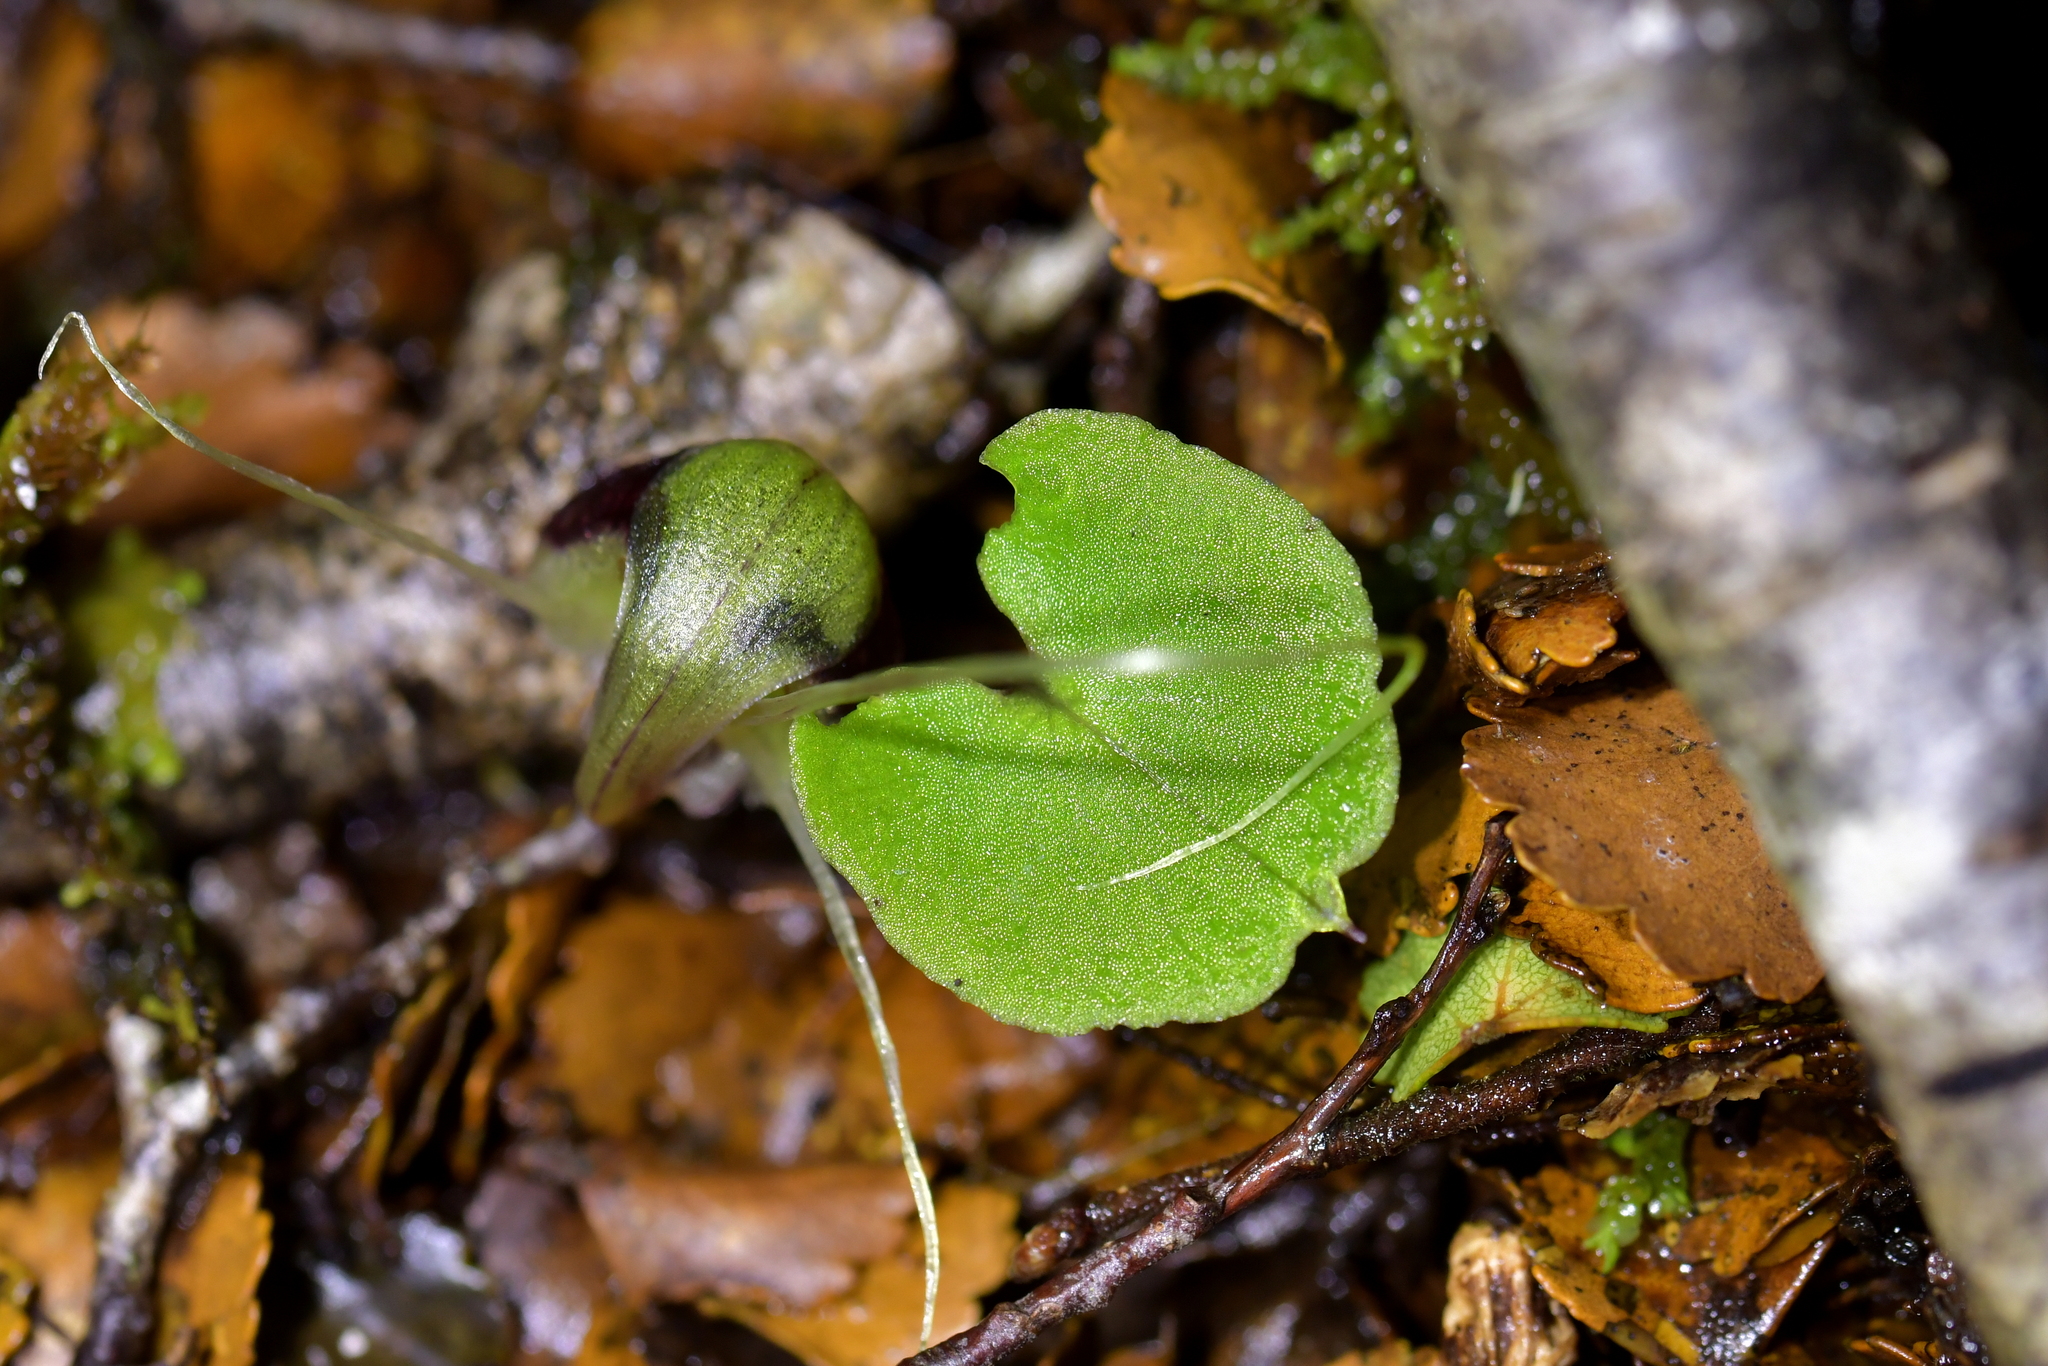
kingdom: Plantae
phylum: Tracheophyta
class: Liliopsida
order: Asparagales
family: Orchidaceae
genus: Corybas
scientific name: Corybas vitreus
